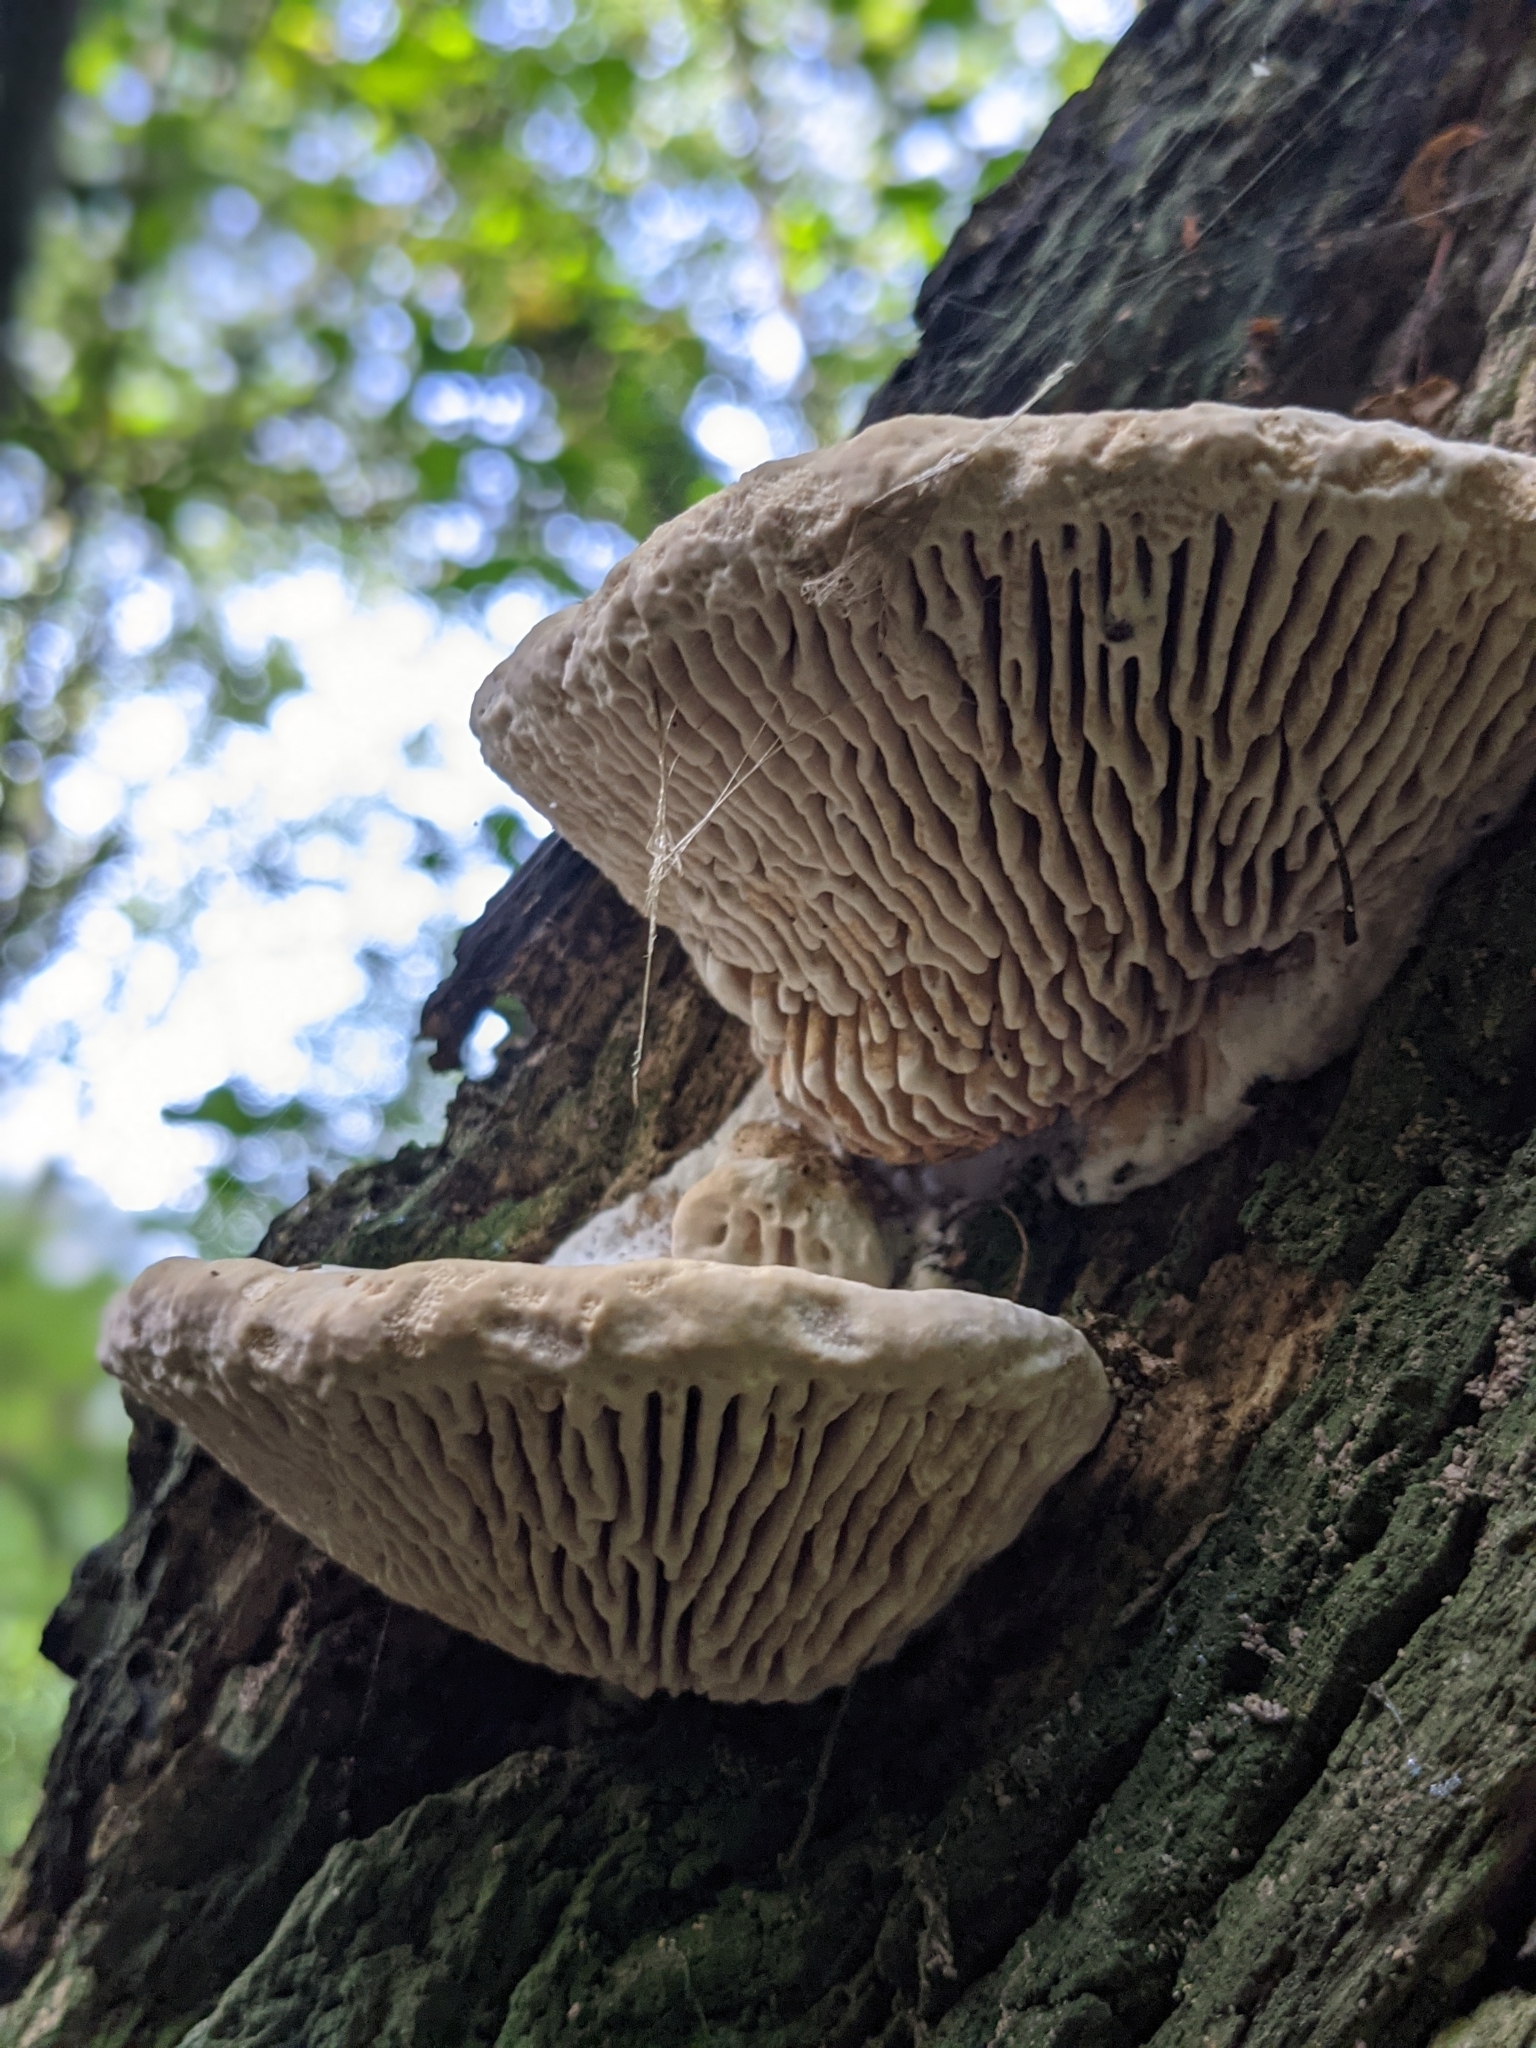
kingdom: Fungi
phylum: Basidiomycota
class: Agaricomycetes
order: Polyporales
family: Fomitopsidaceae
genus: Fomitopsis
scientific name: Fomitopsis
